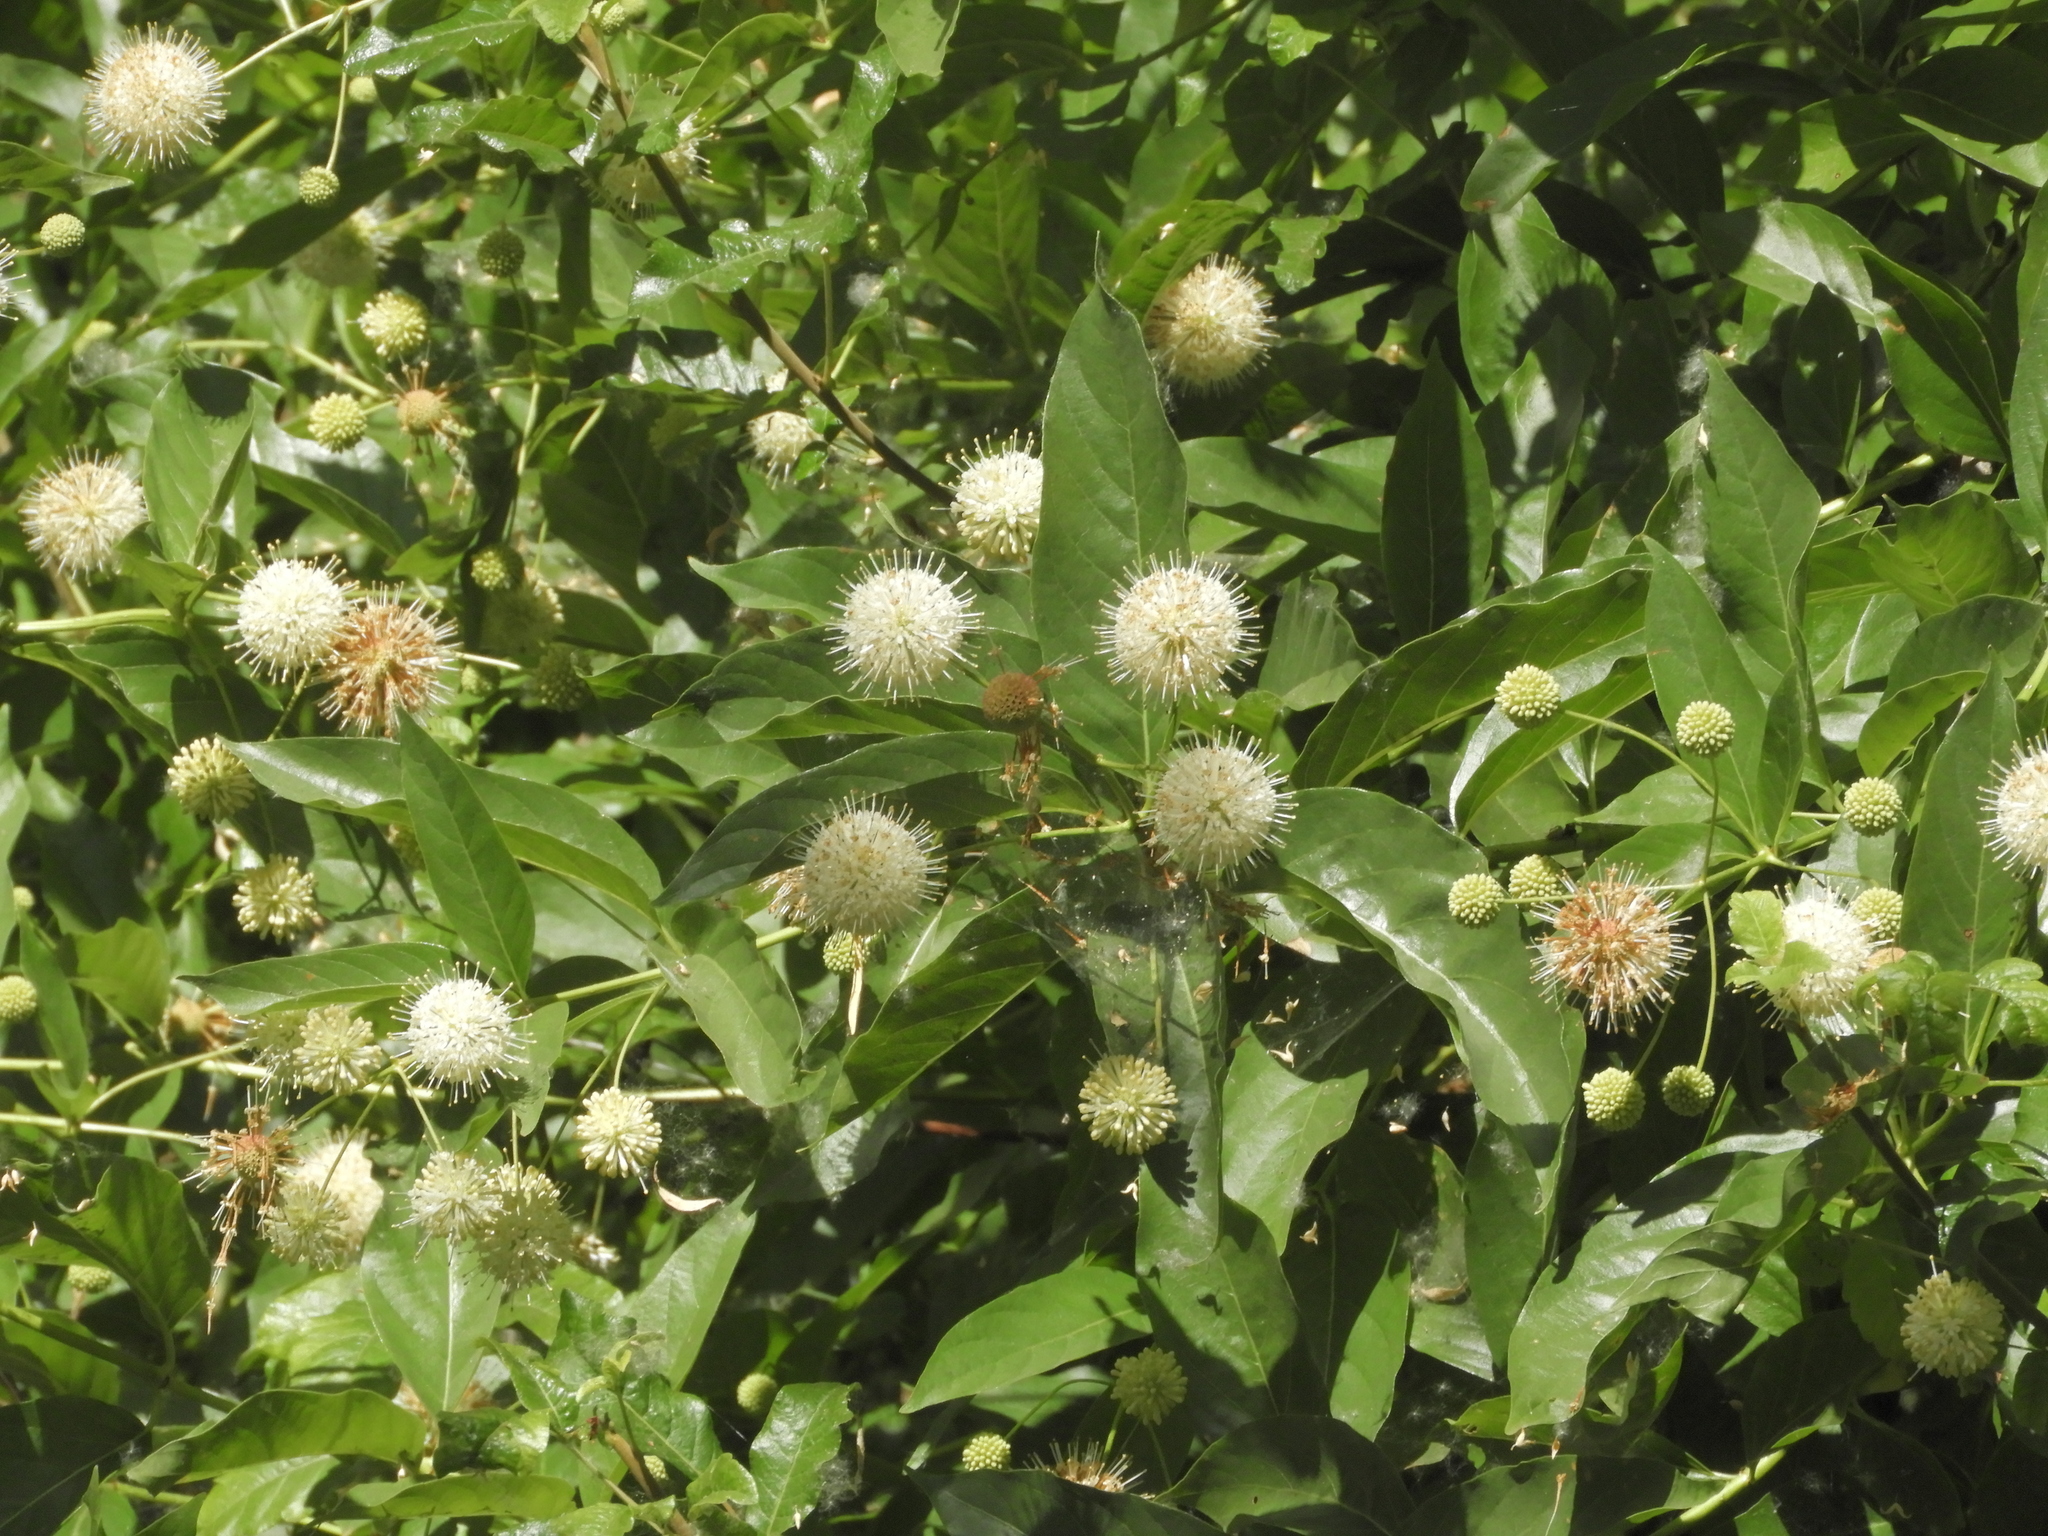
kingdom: Plantae
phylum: Tracheophyta
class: Magnoliopsida
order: Gentianales
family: Rubiaceae
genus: Cephalanthus
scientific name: Cephalanthus occidentalis
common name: Button-willow
